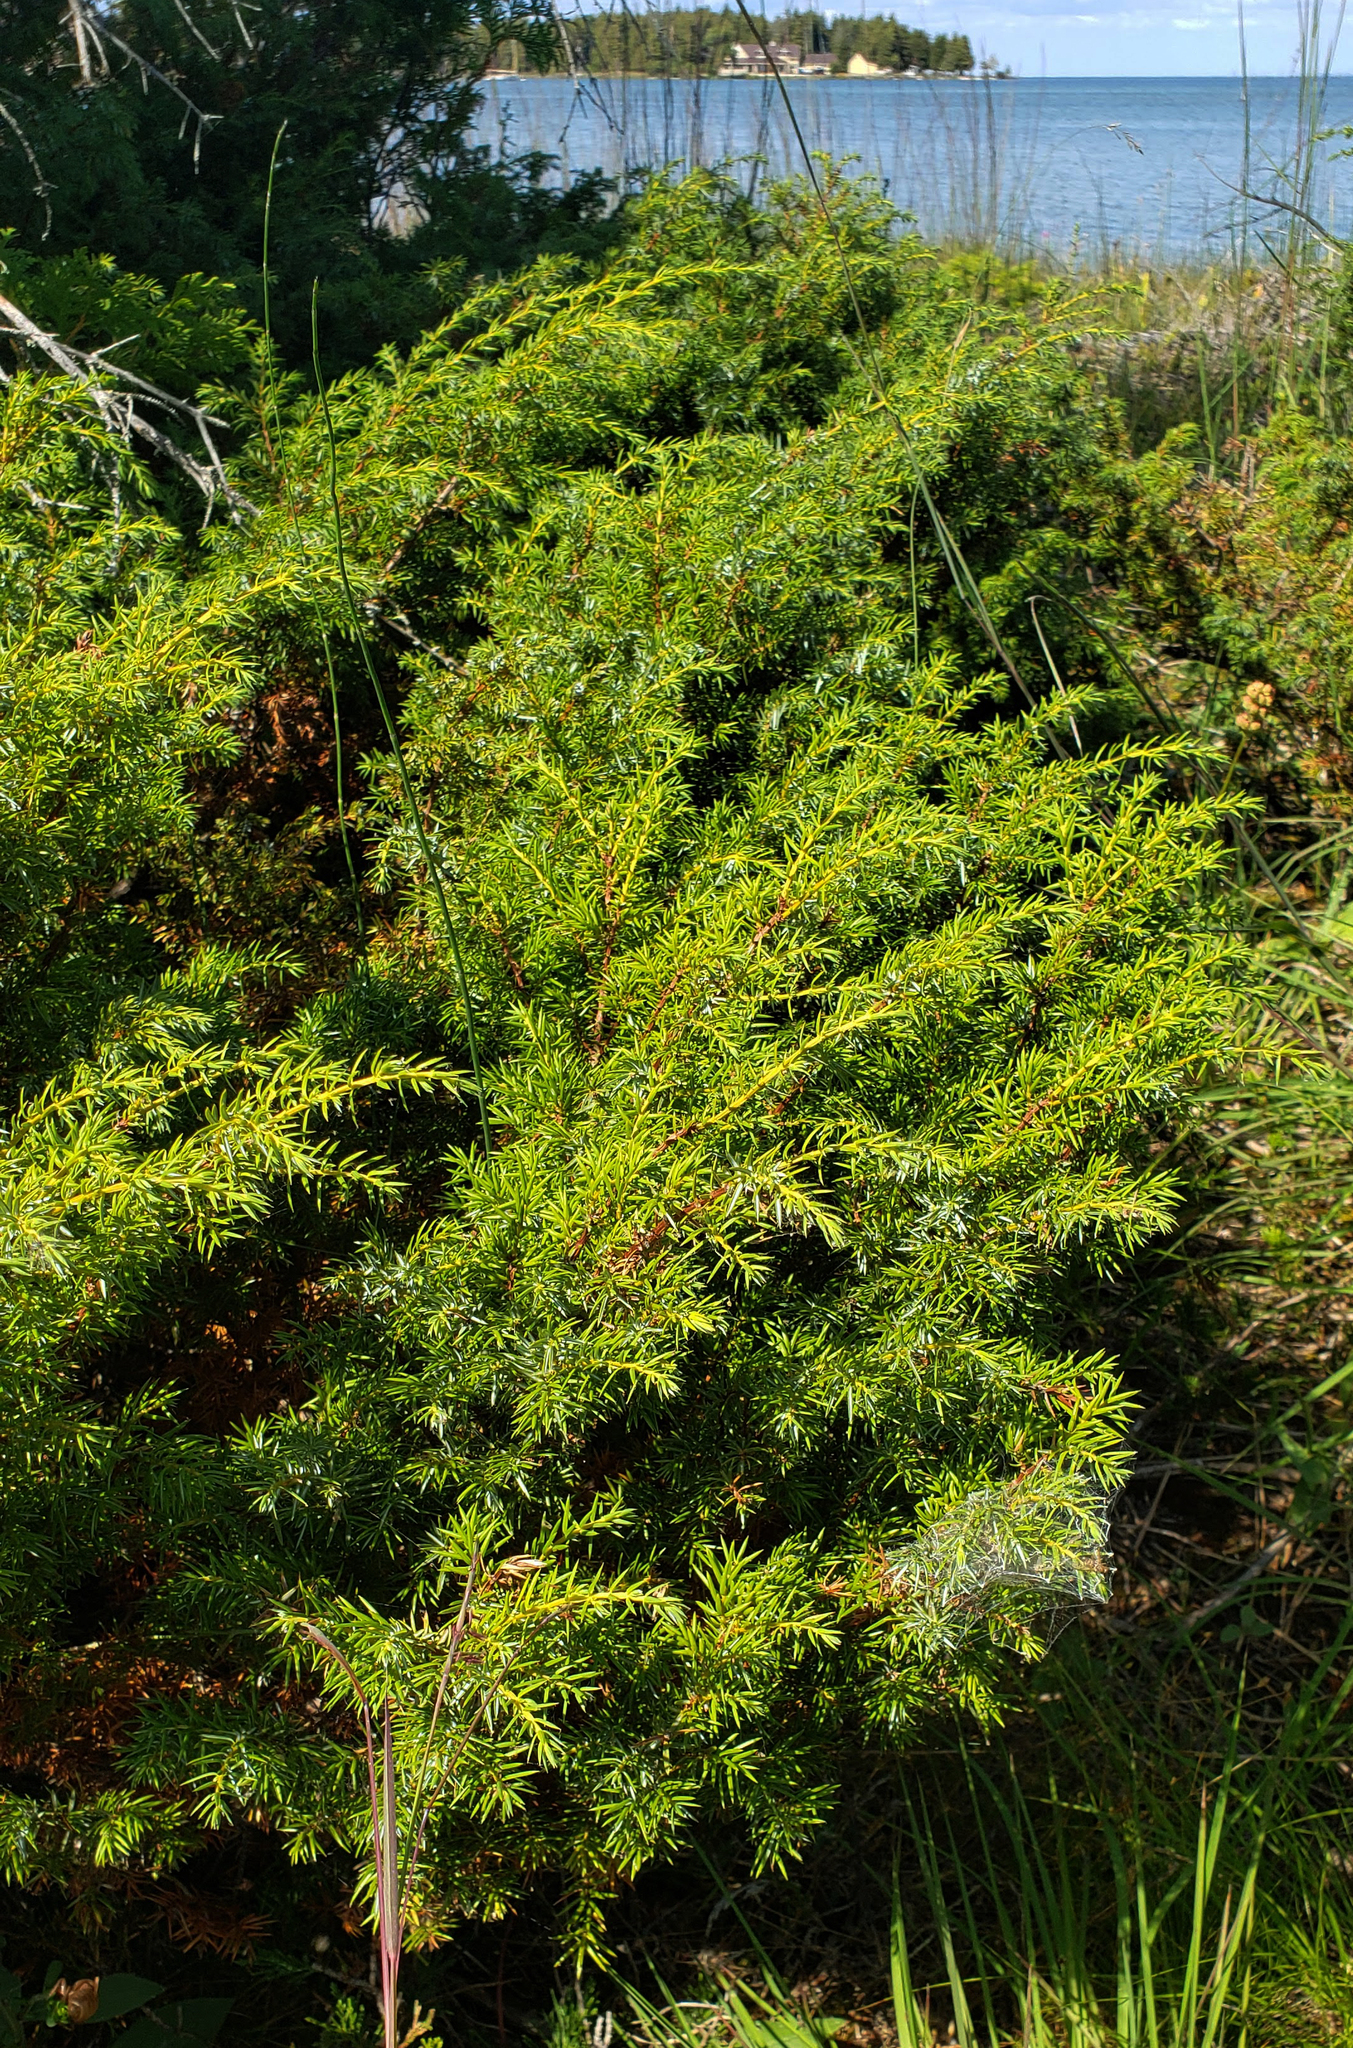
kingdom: Plantae
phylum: Tracheophyta
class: Pinopsida
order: Pinales
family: Cupressaceae
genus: Juniperus
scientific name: Juniperus communis
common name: Common juniper
